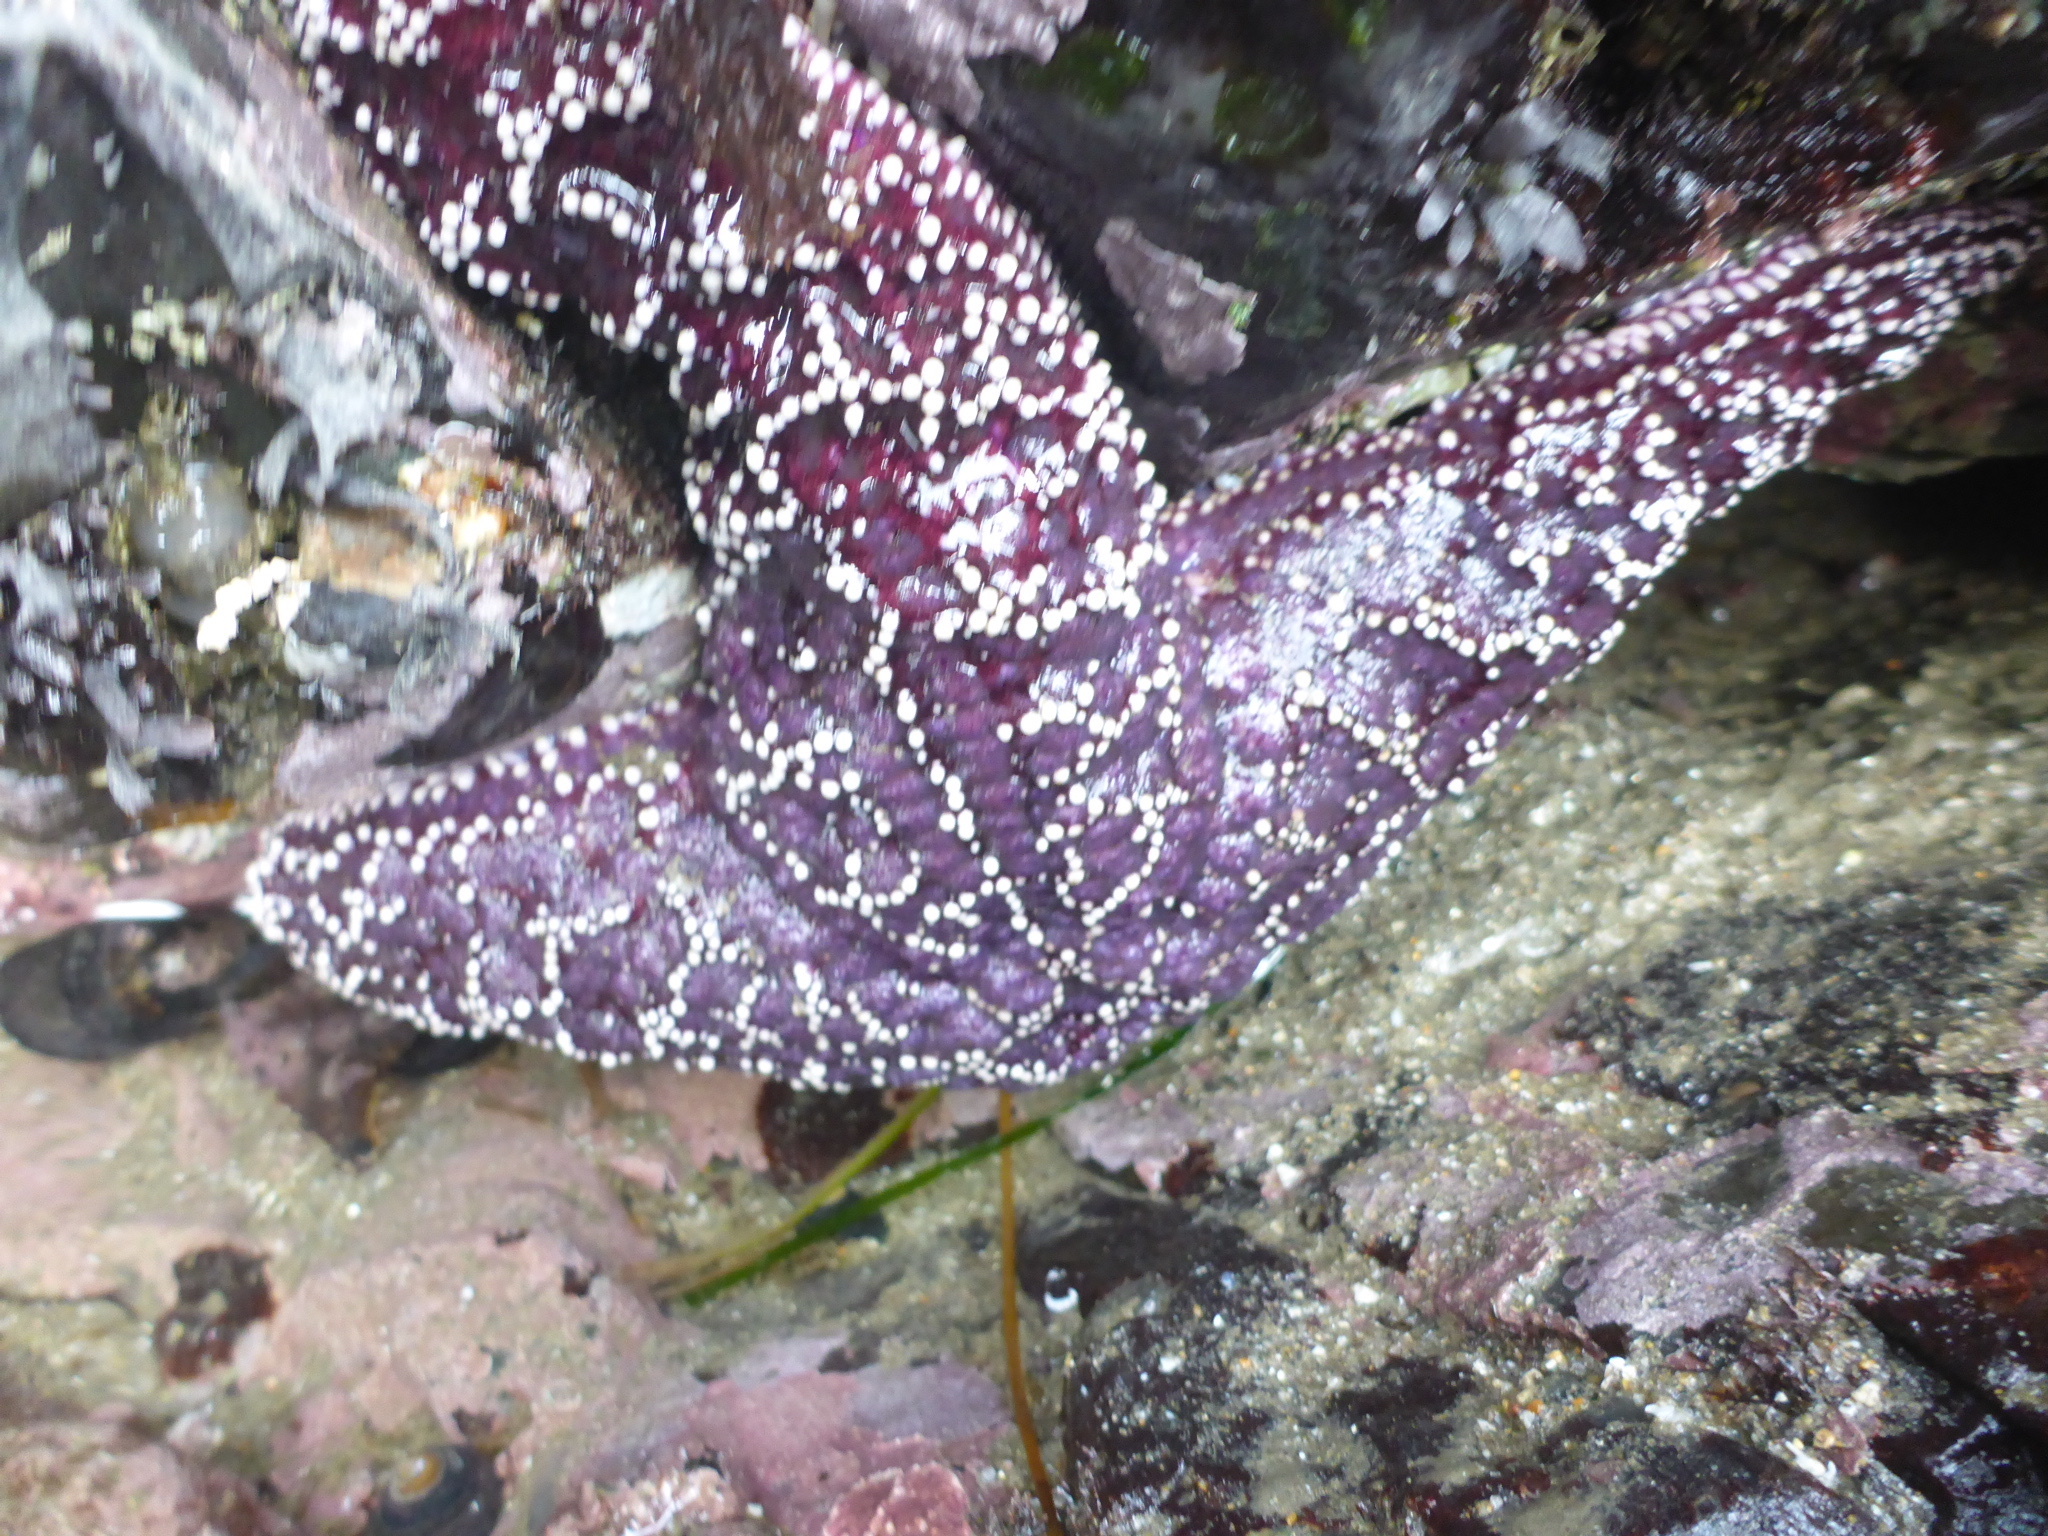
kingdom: Animalia
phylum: Echinodermata
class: Asteroidea
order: Forcipulatida
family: Asteriidae
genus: Pisaster
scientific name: Pisaster ochraceus
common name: Ochre stars
